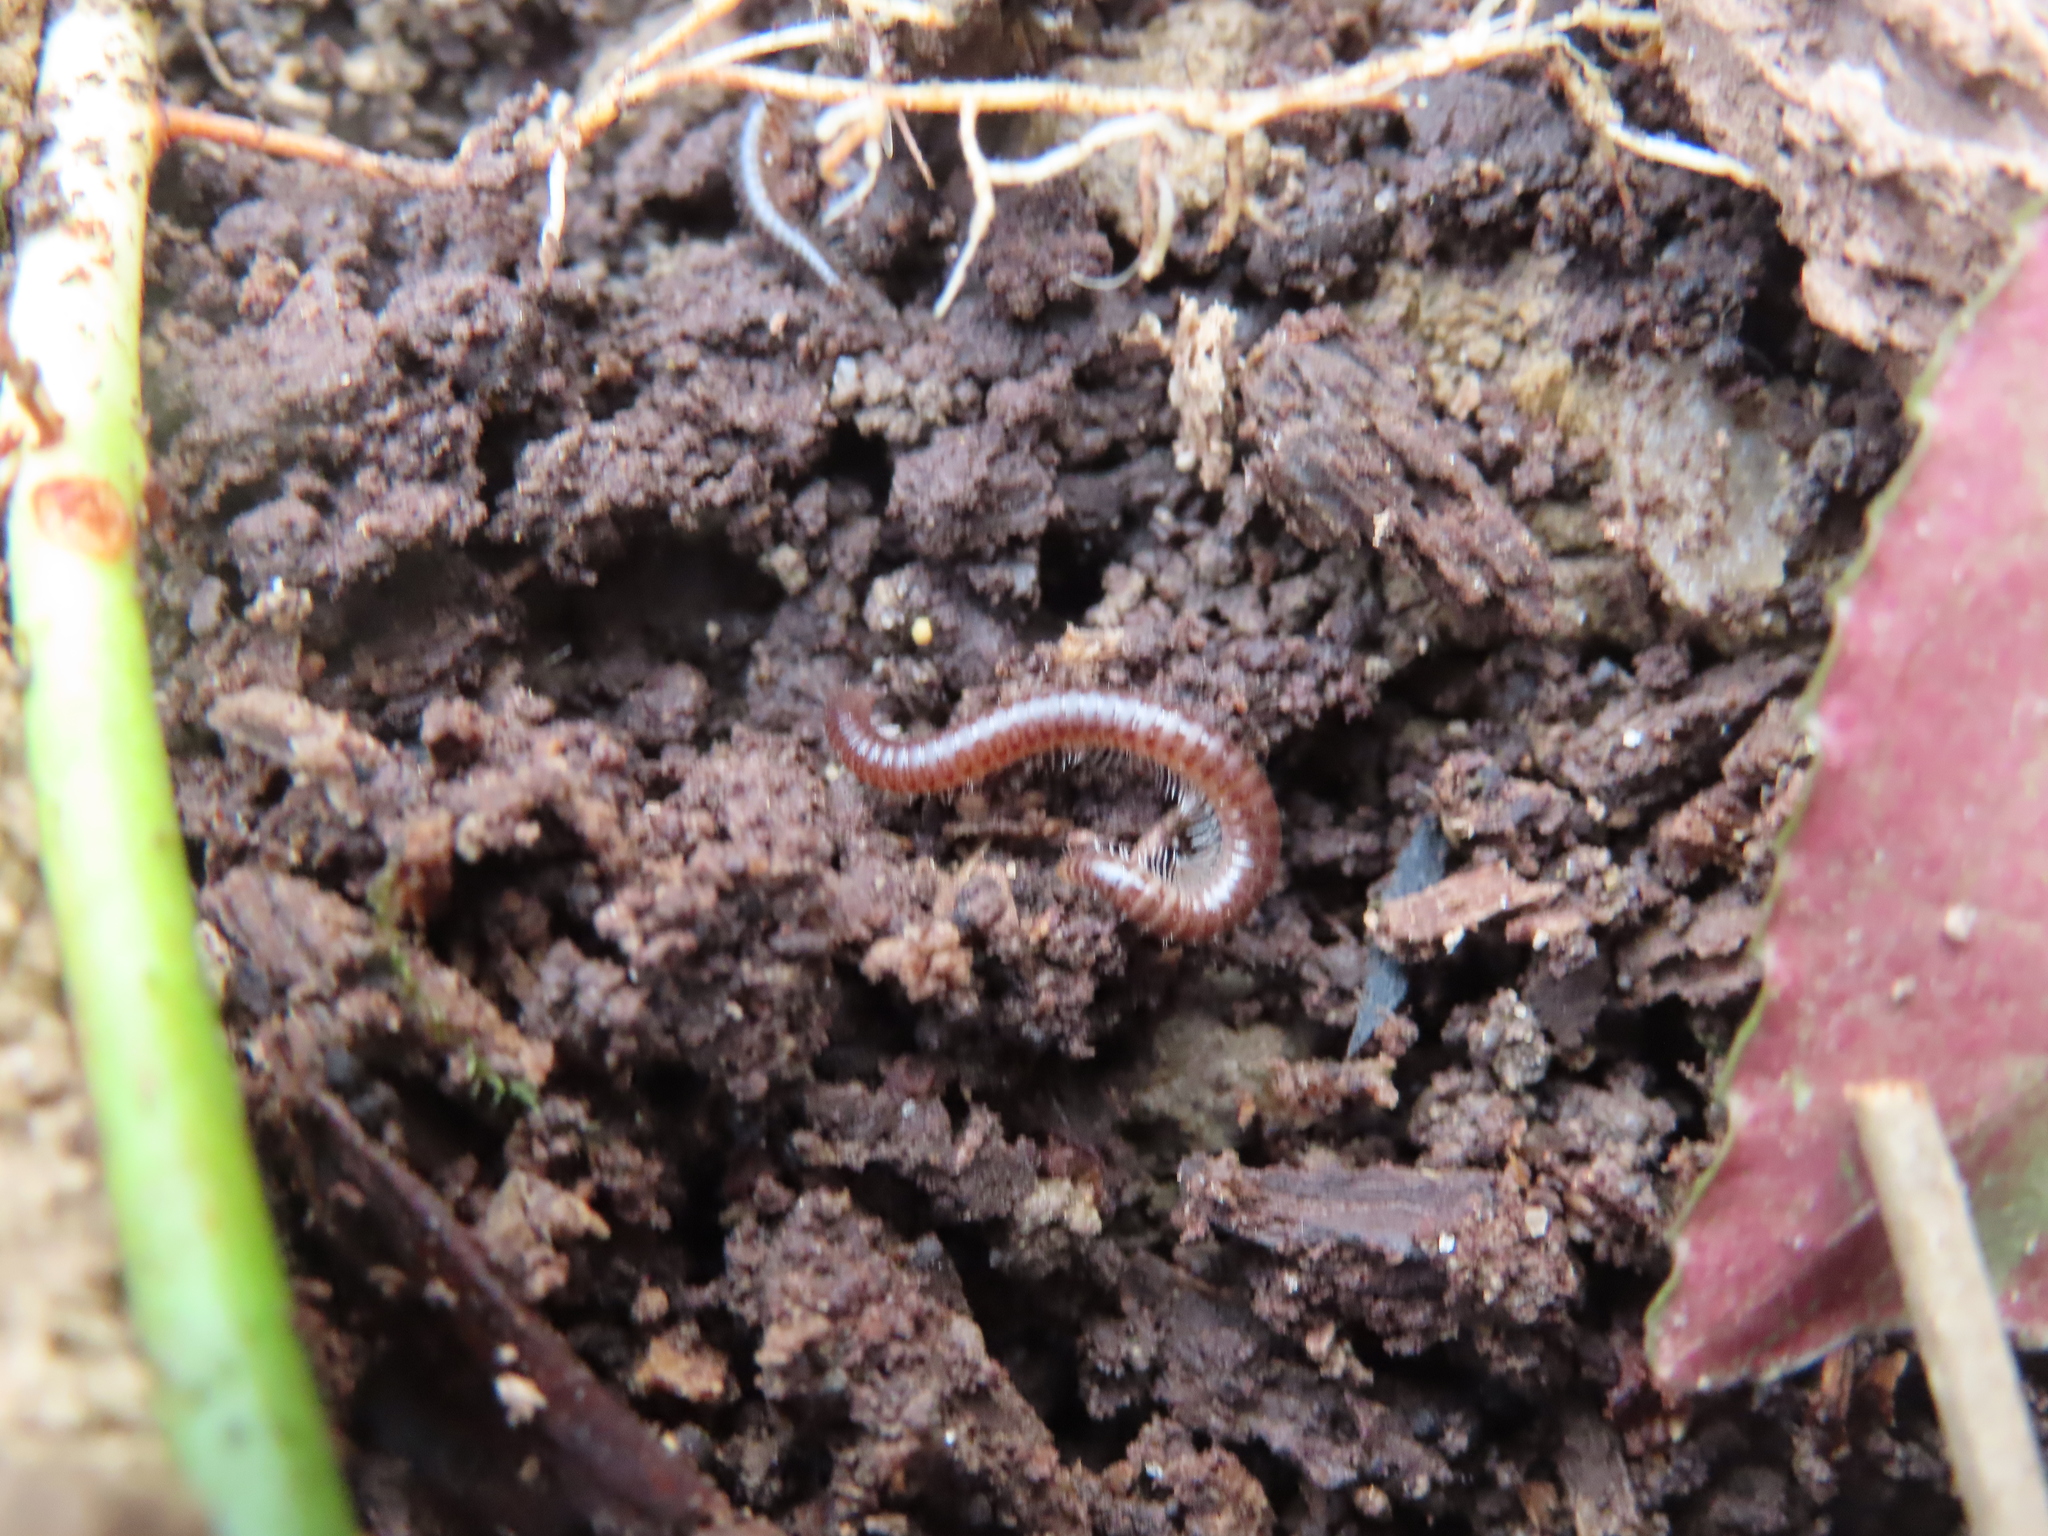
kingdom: Animalia
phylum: Arthropoda
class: Diplopoda
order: Julida
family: Julidae
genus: Ophyiulus
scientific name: Ophyiulus pilosus
